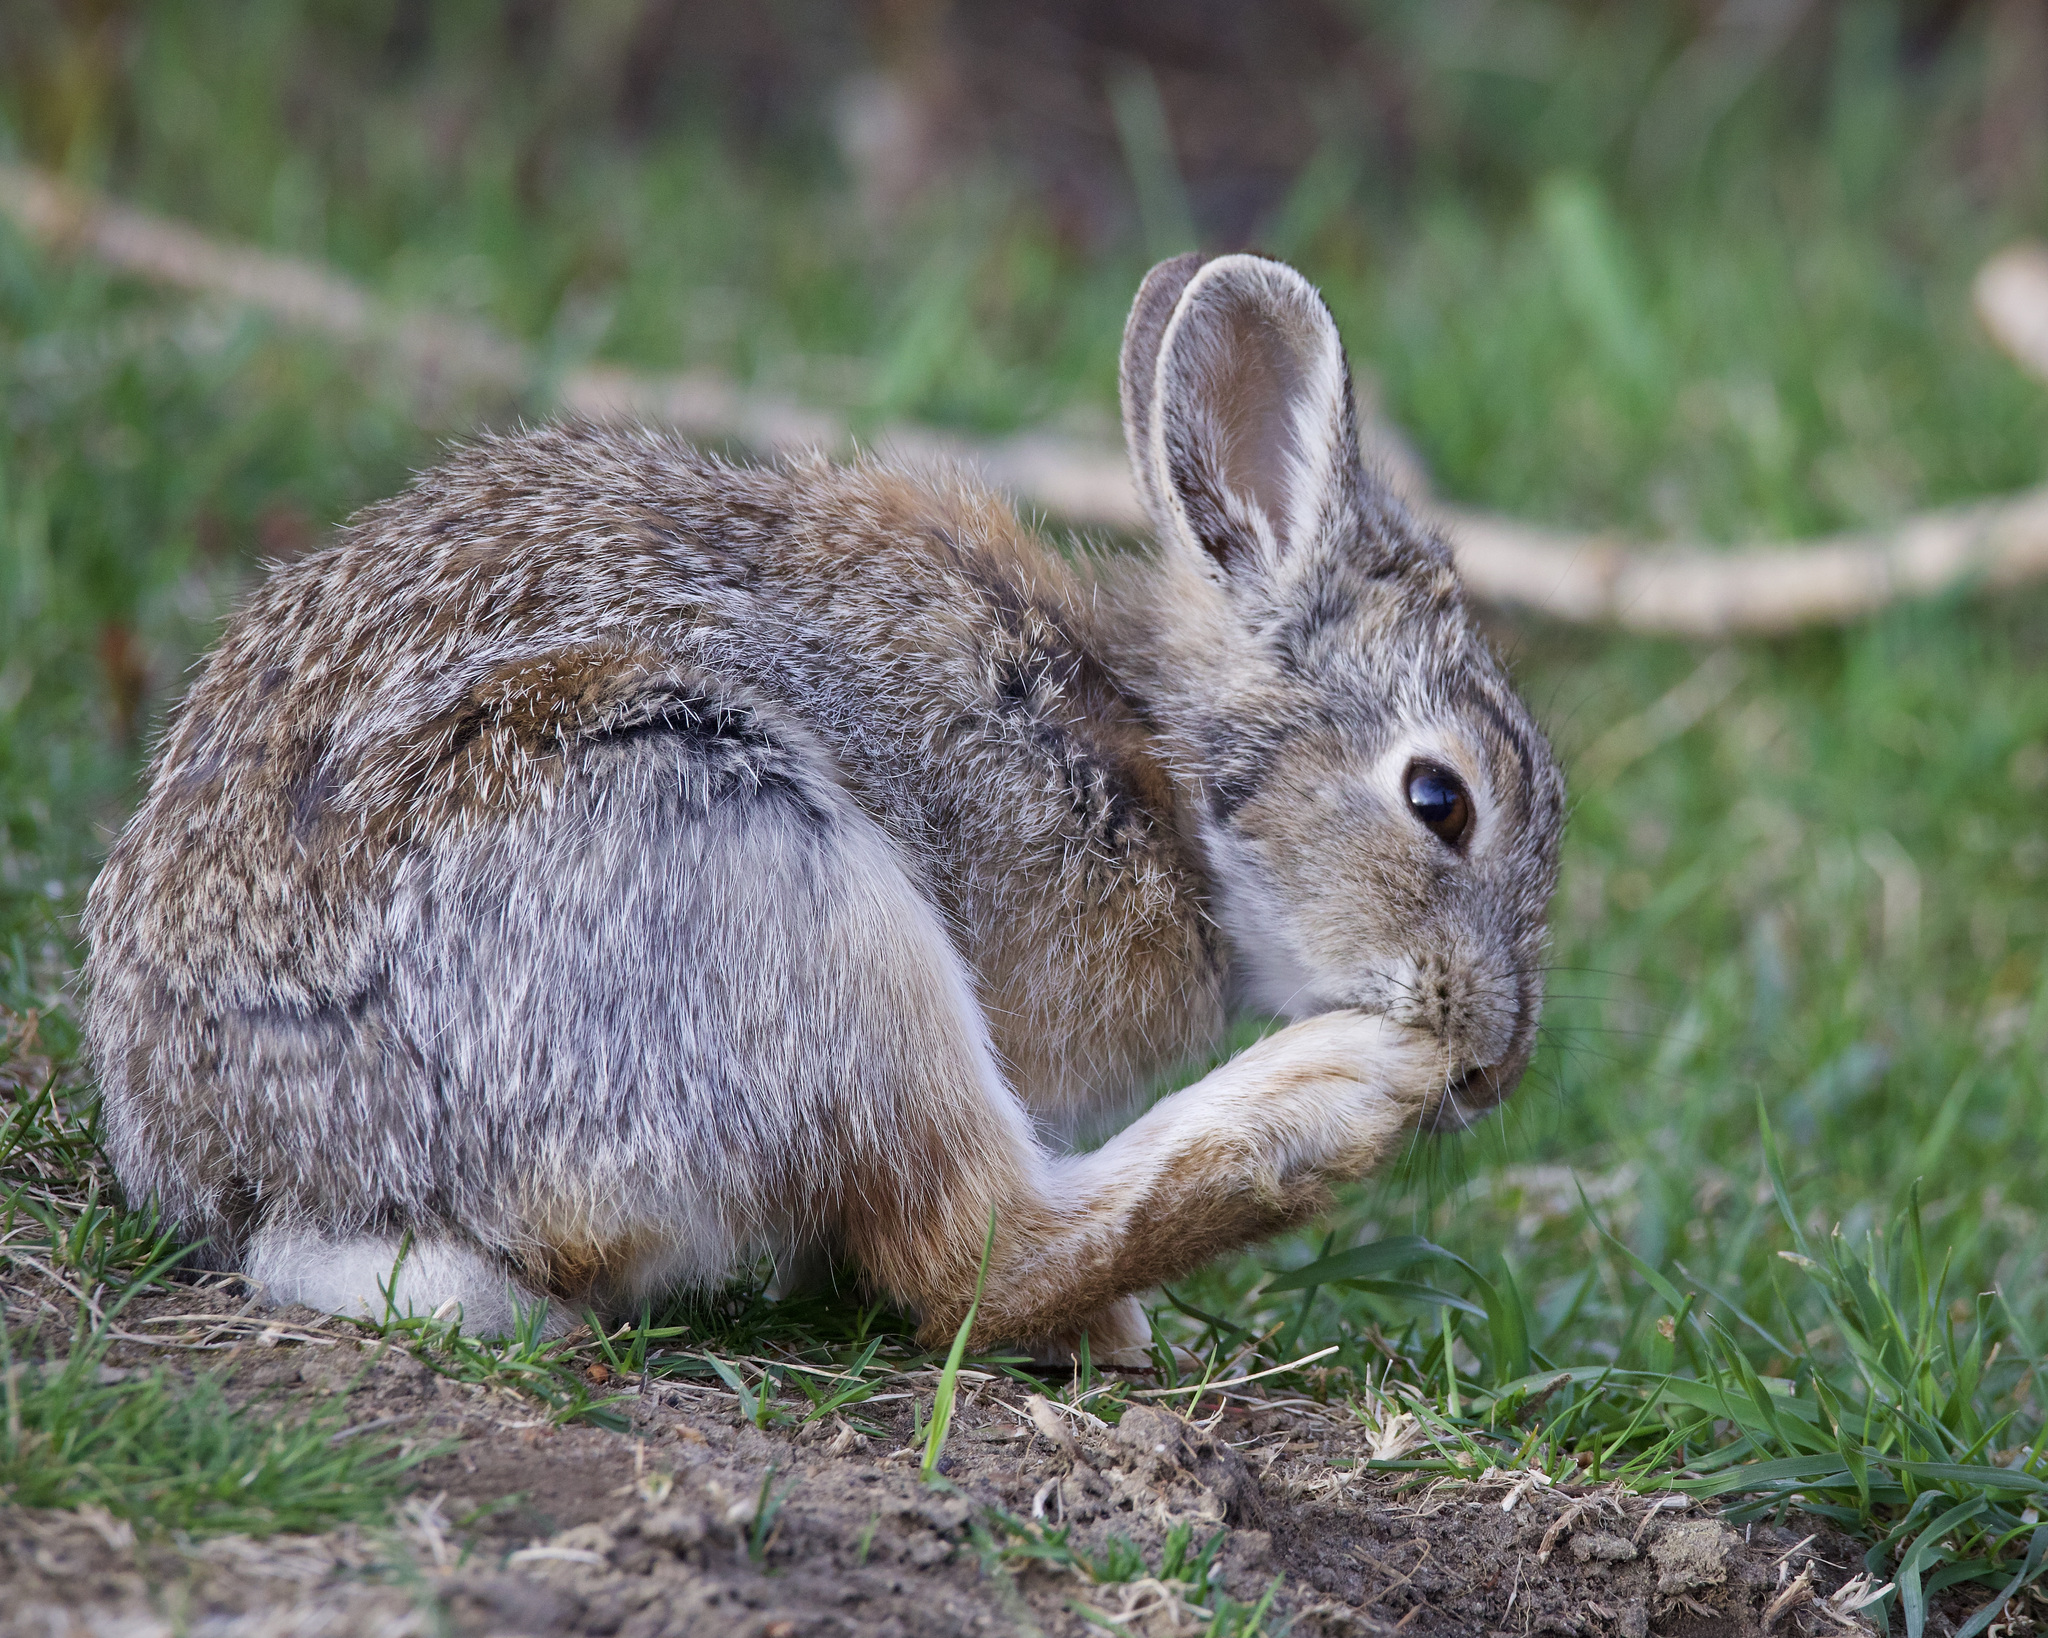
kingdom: Animalia
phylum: Chordata
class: Mammalia
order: Lagomorpha
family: Leporidae
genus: Sylvilagus
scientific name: Sylvilagus nuttallii
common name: Mountain cottontail
